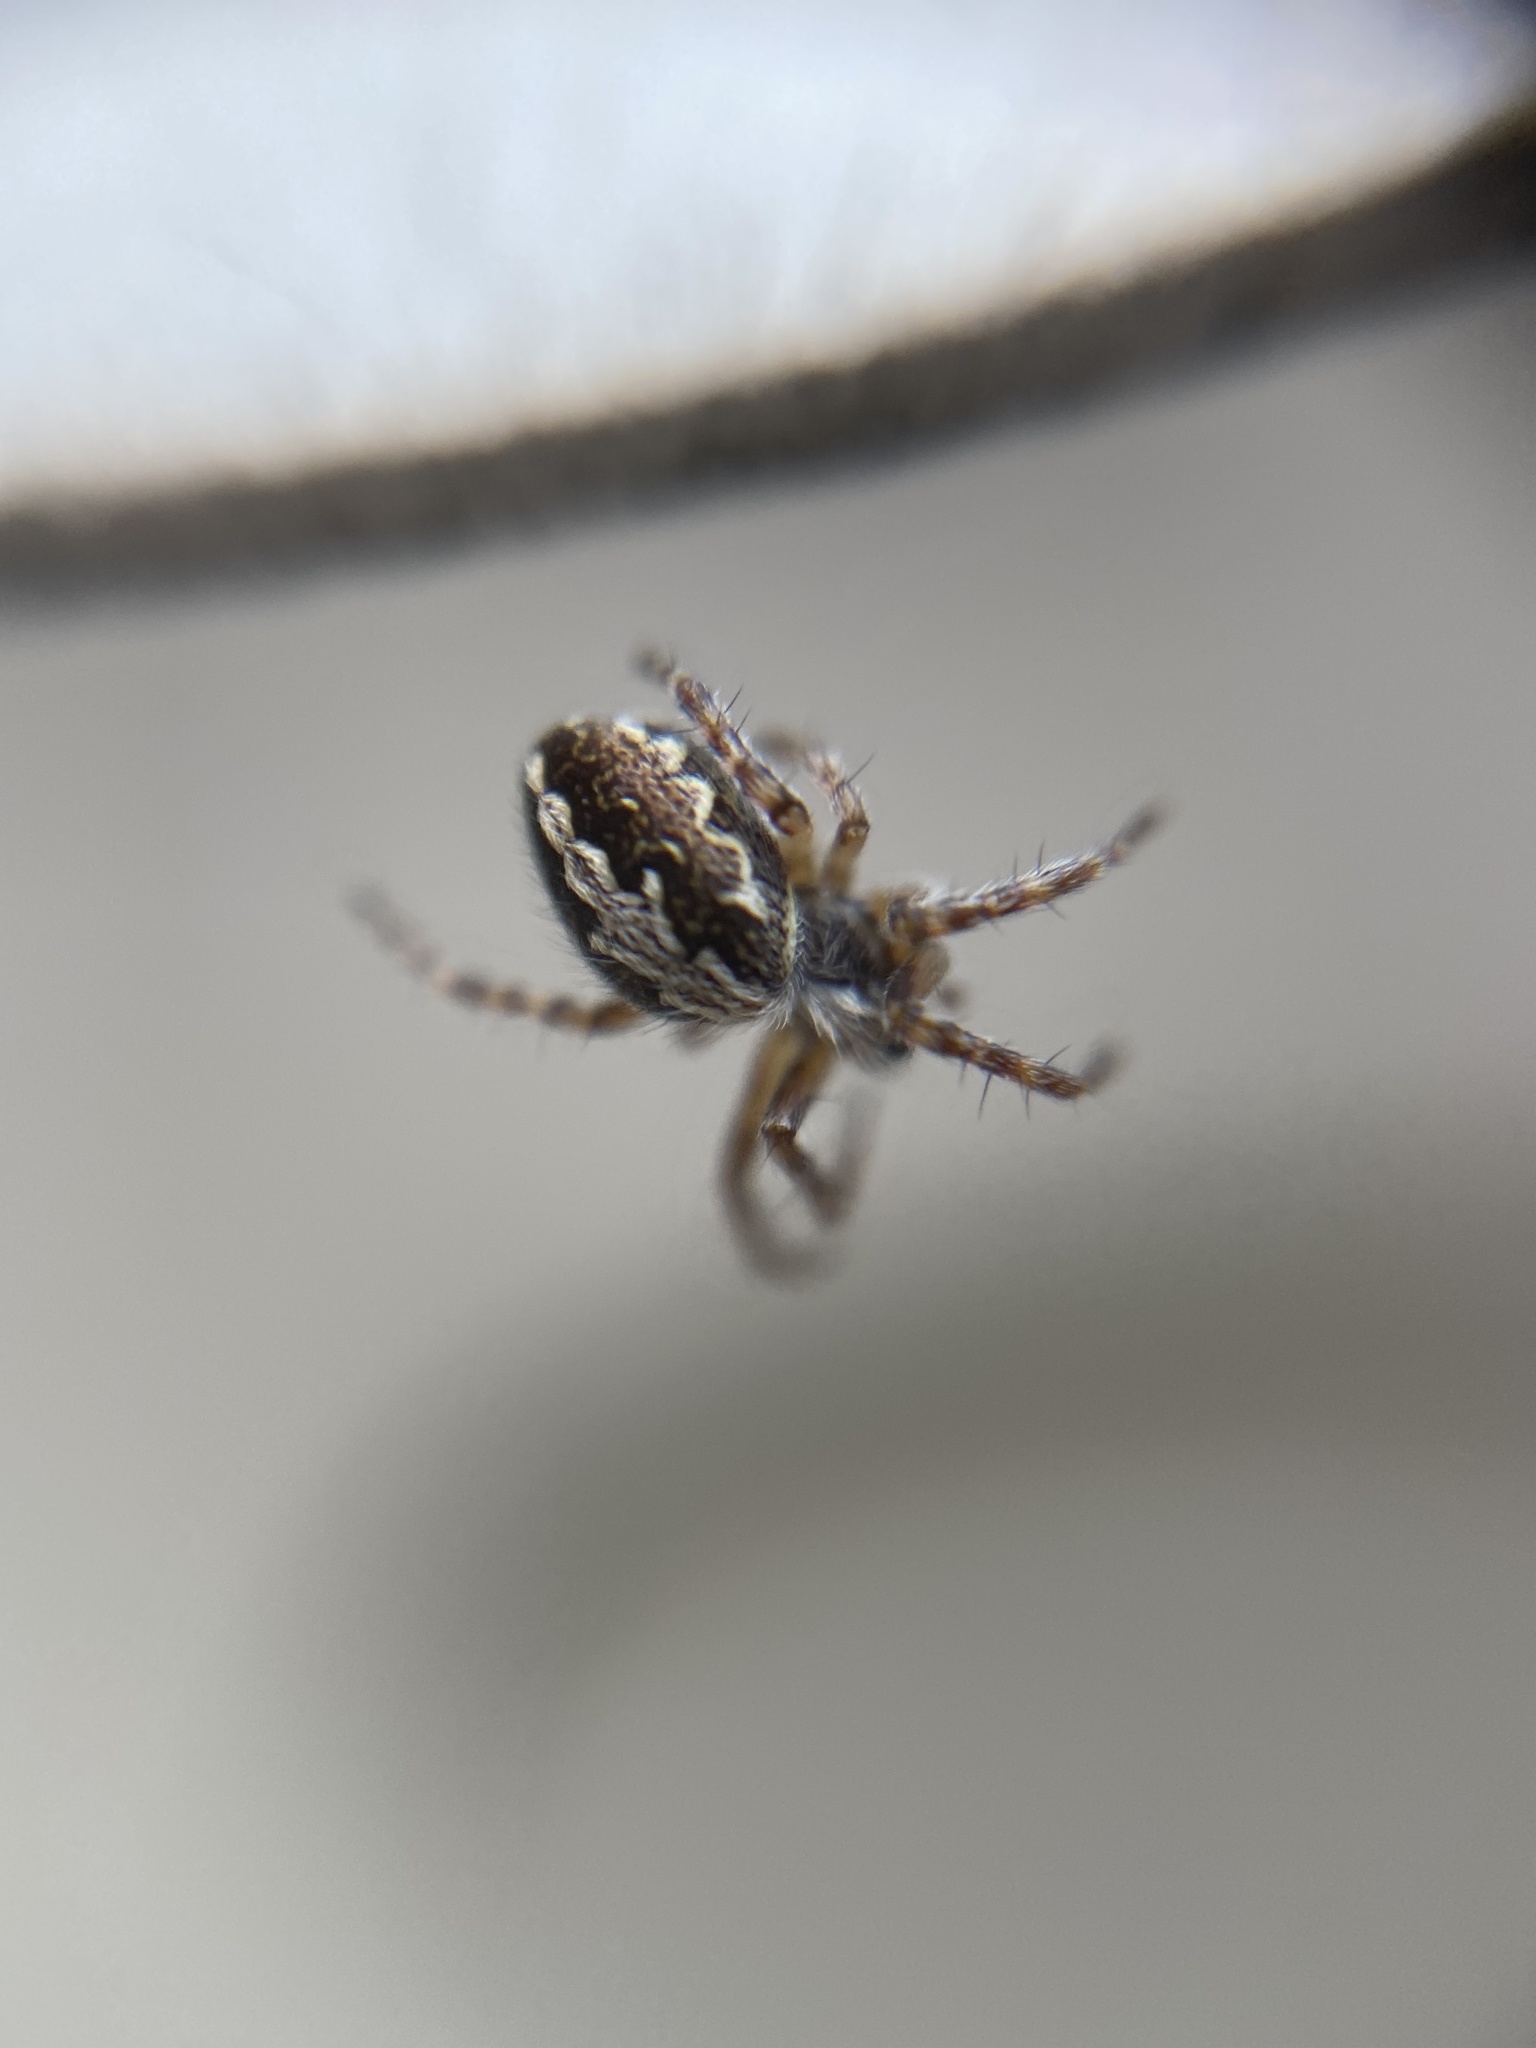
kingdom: Animalia
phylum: Arthropoda
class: Arachnida
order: Araneae
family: Araneidae
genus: Aculepeira
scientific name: Aculepeira ceropegia
